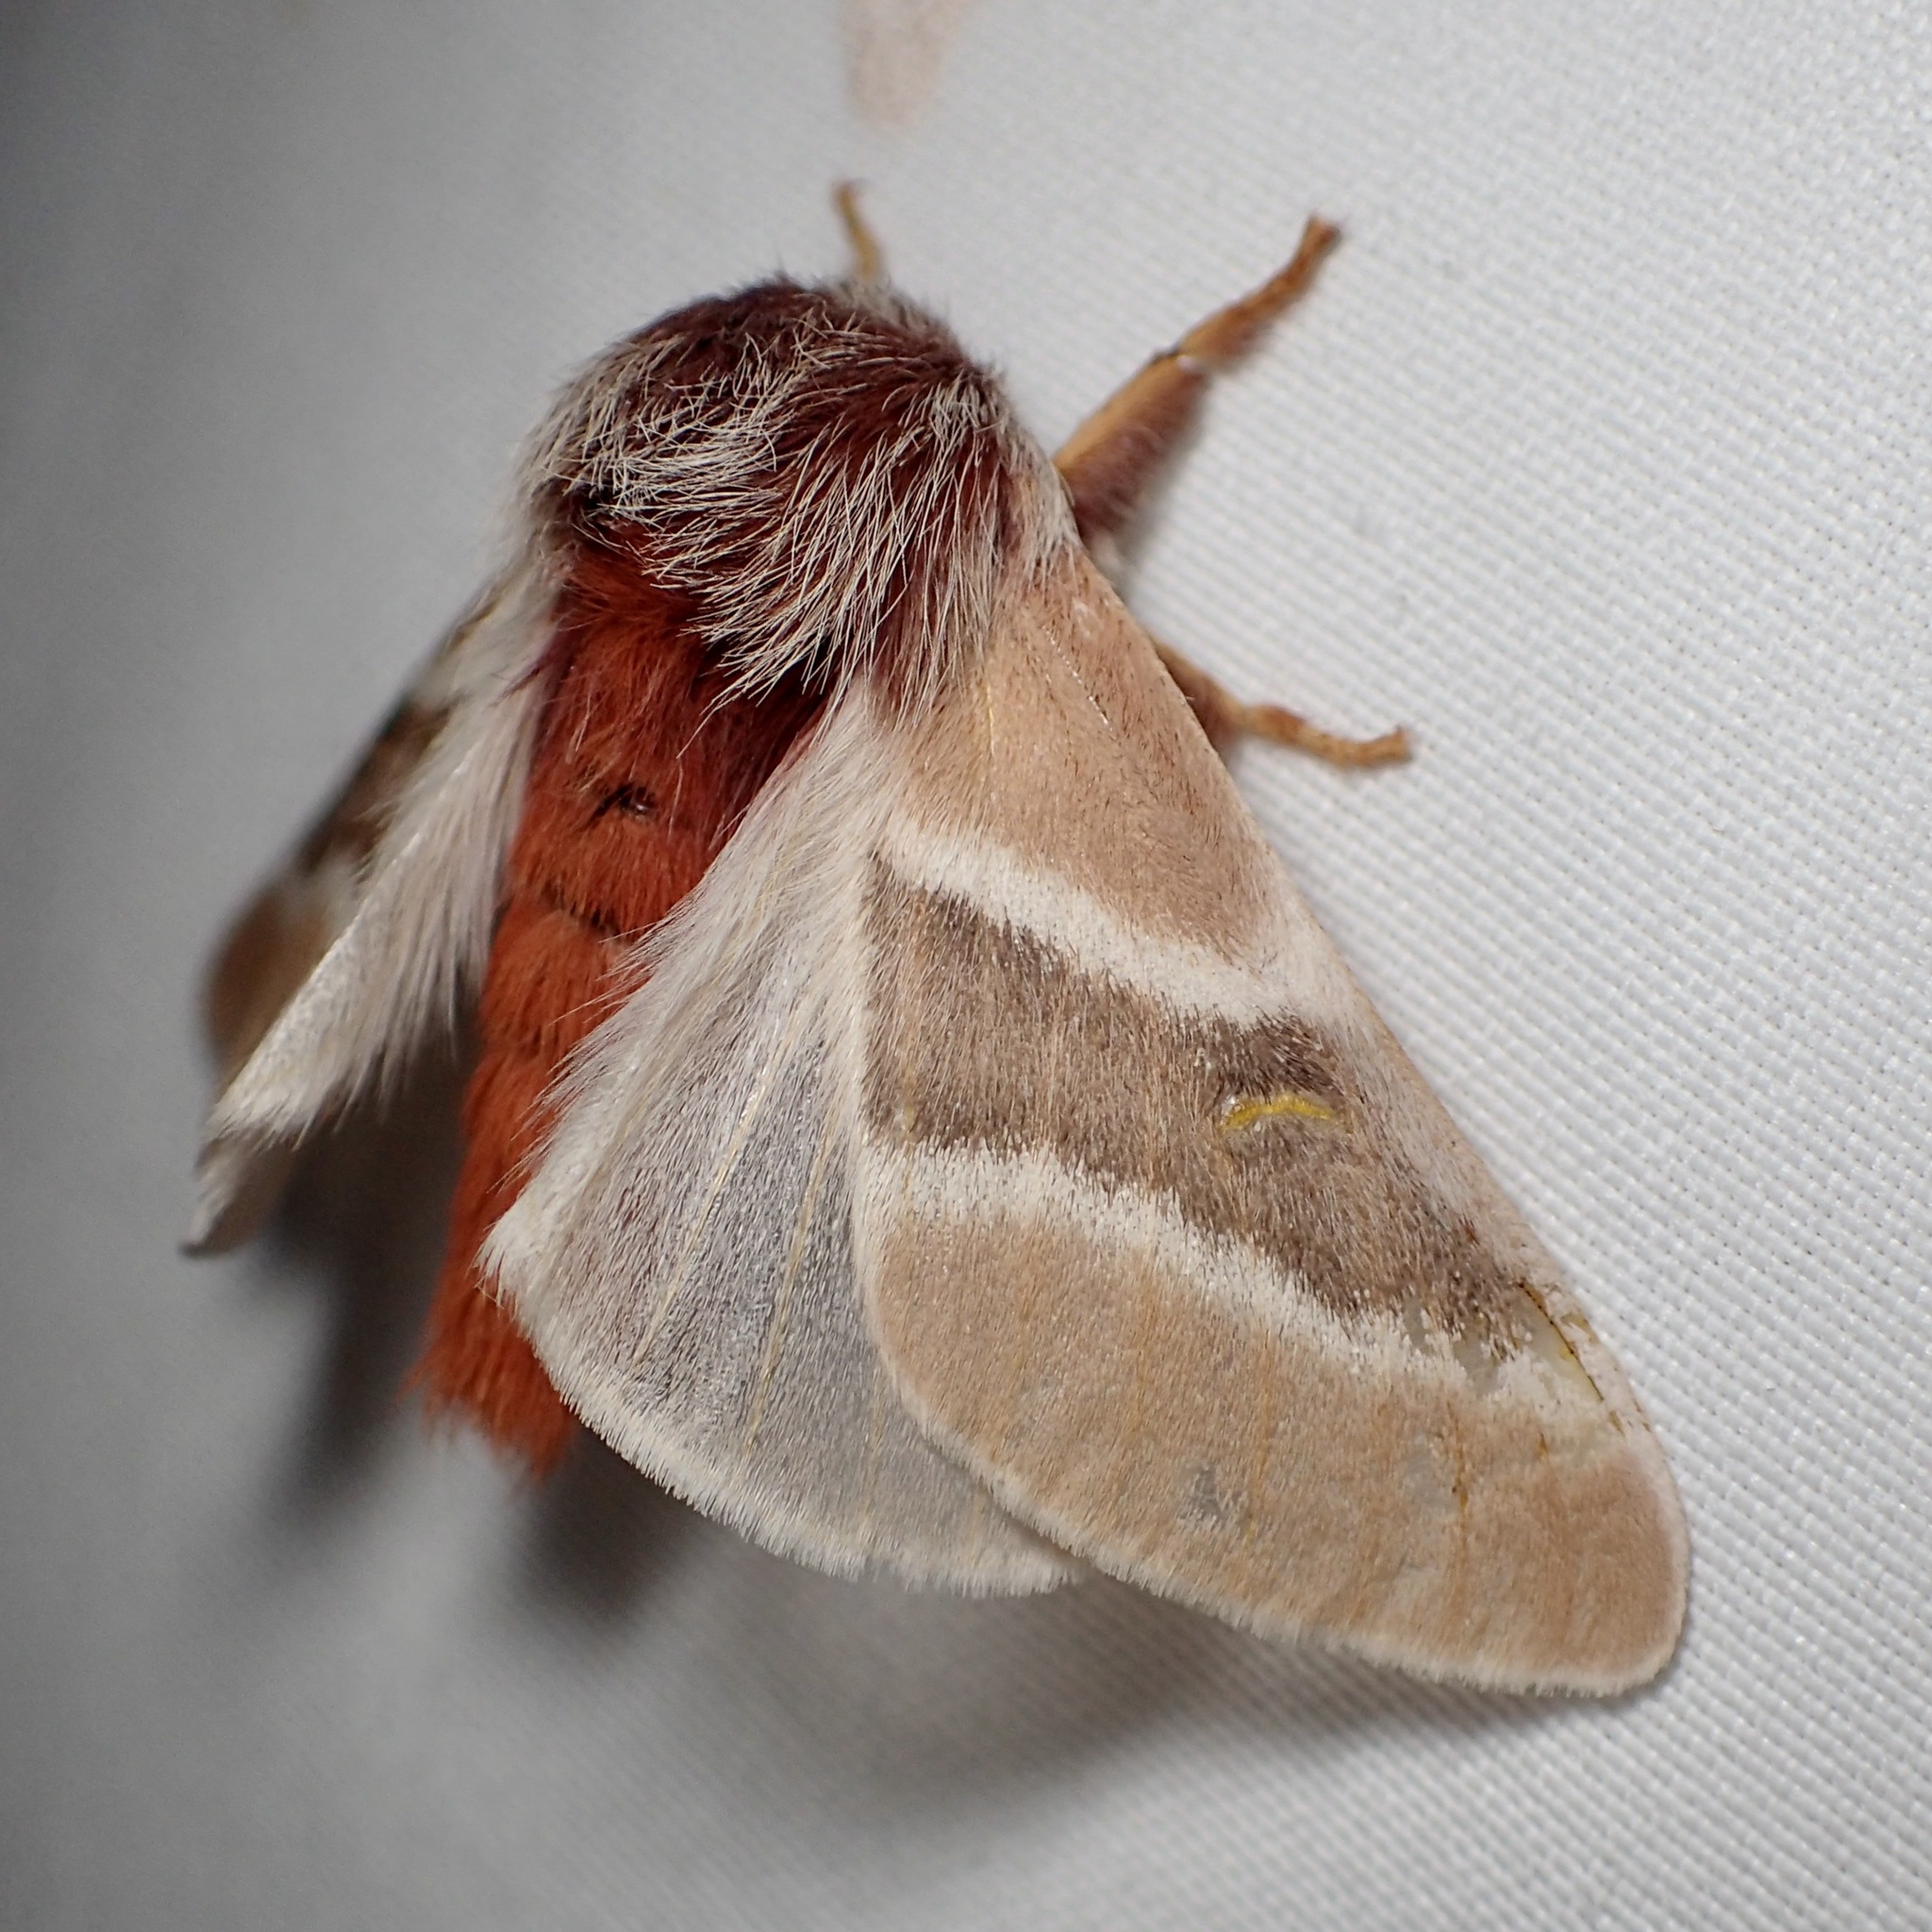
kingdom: Animalia
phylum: Arthropoda
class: Insecta
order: Lepidoptera
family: Saturniidae
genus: Hemileuca
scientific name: Hemileuca sororius
